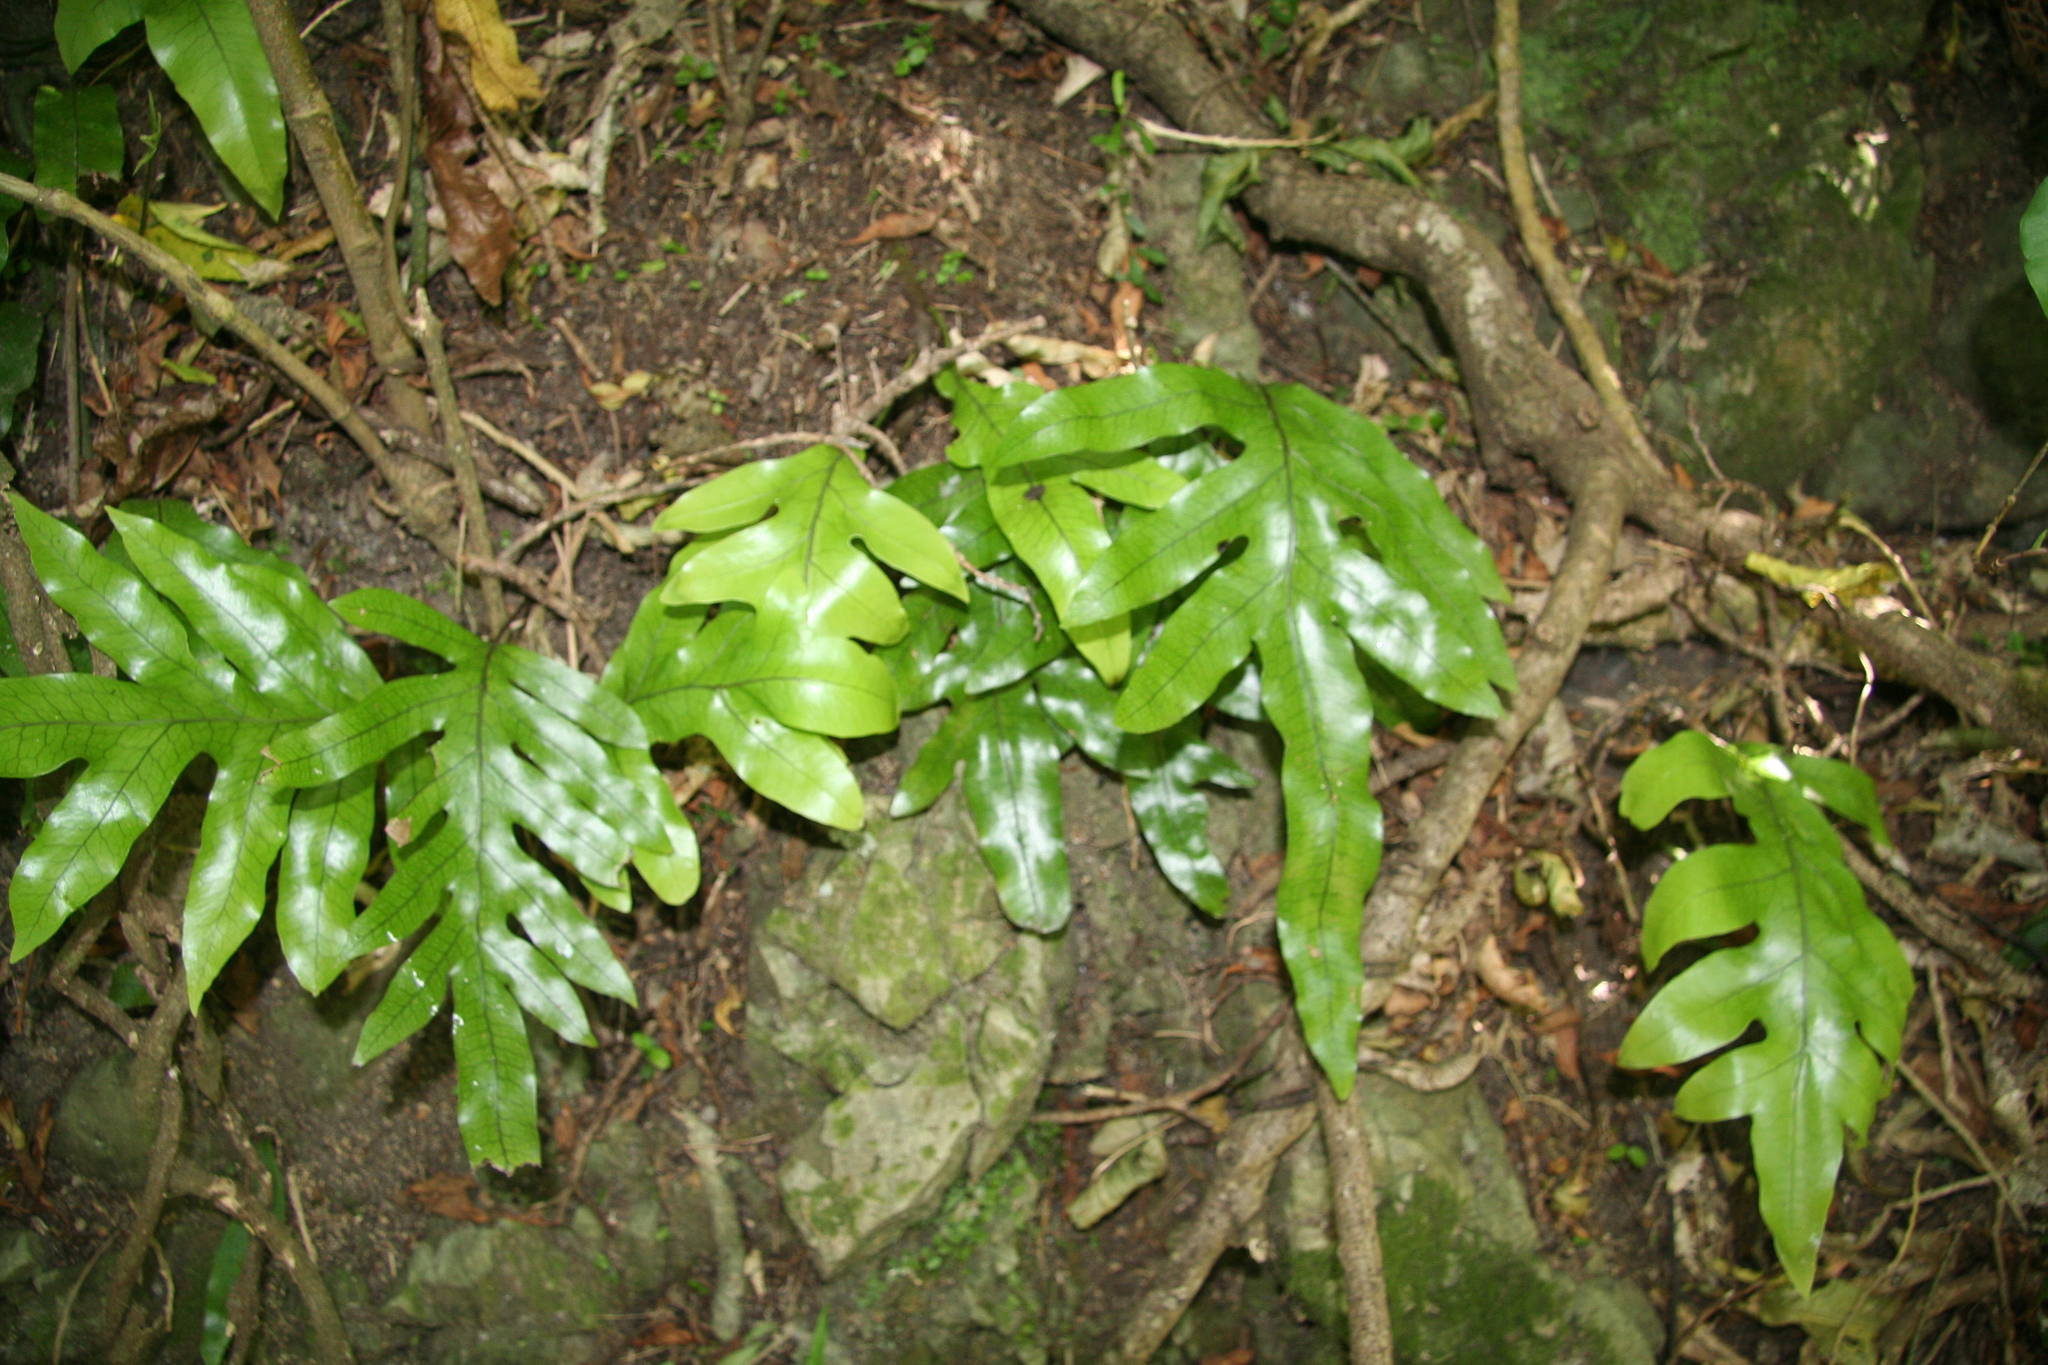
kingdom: Plantae
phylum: Tracheophyta
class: Polypodiopsida
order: Polypodiales
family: Polypodiaceae
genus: Lecanopteris
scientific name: Lecanopteris pustulata
